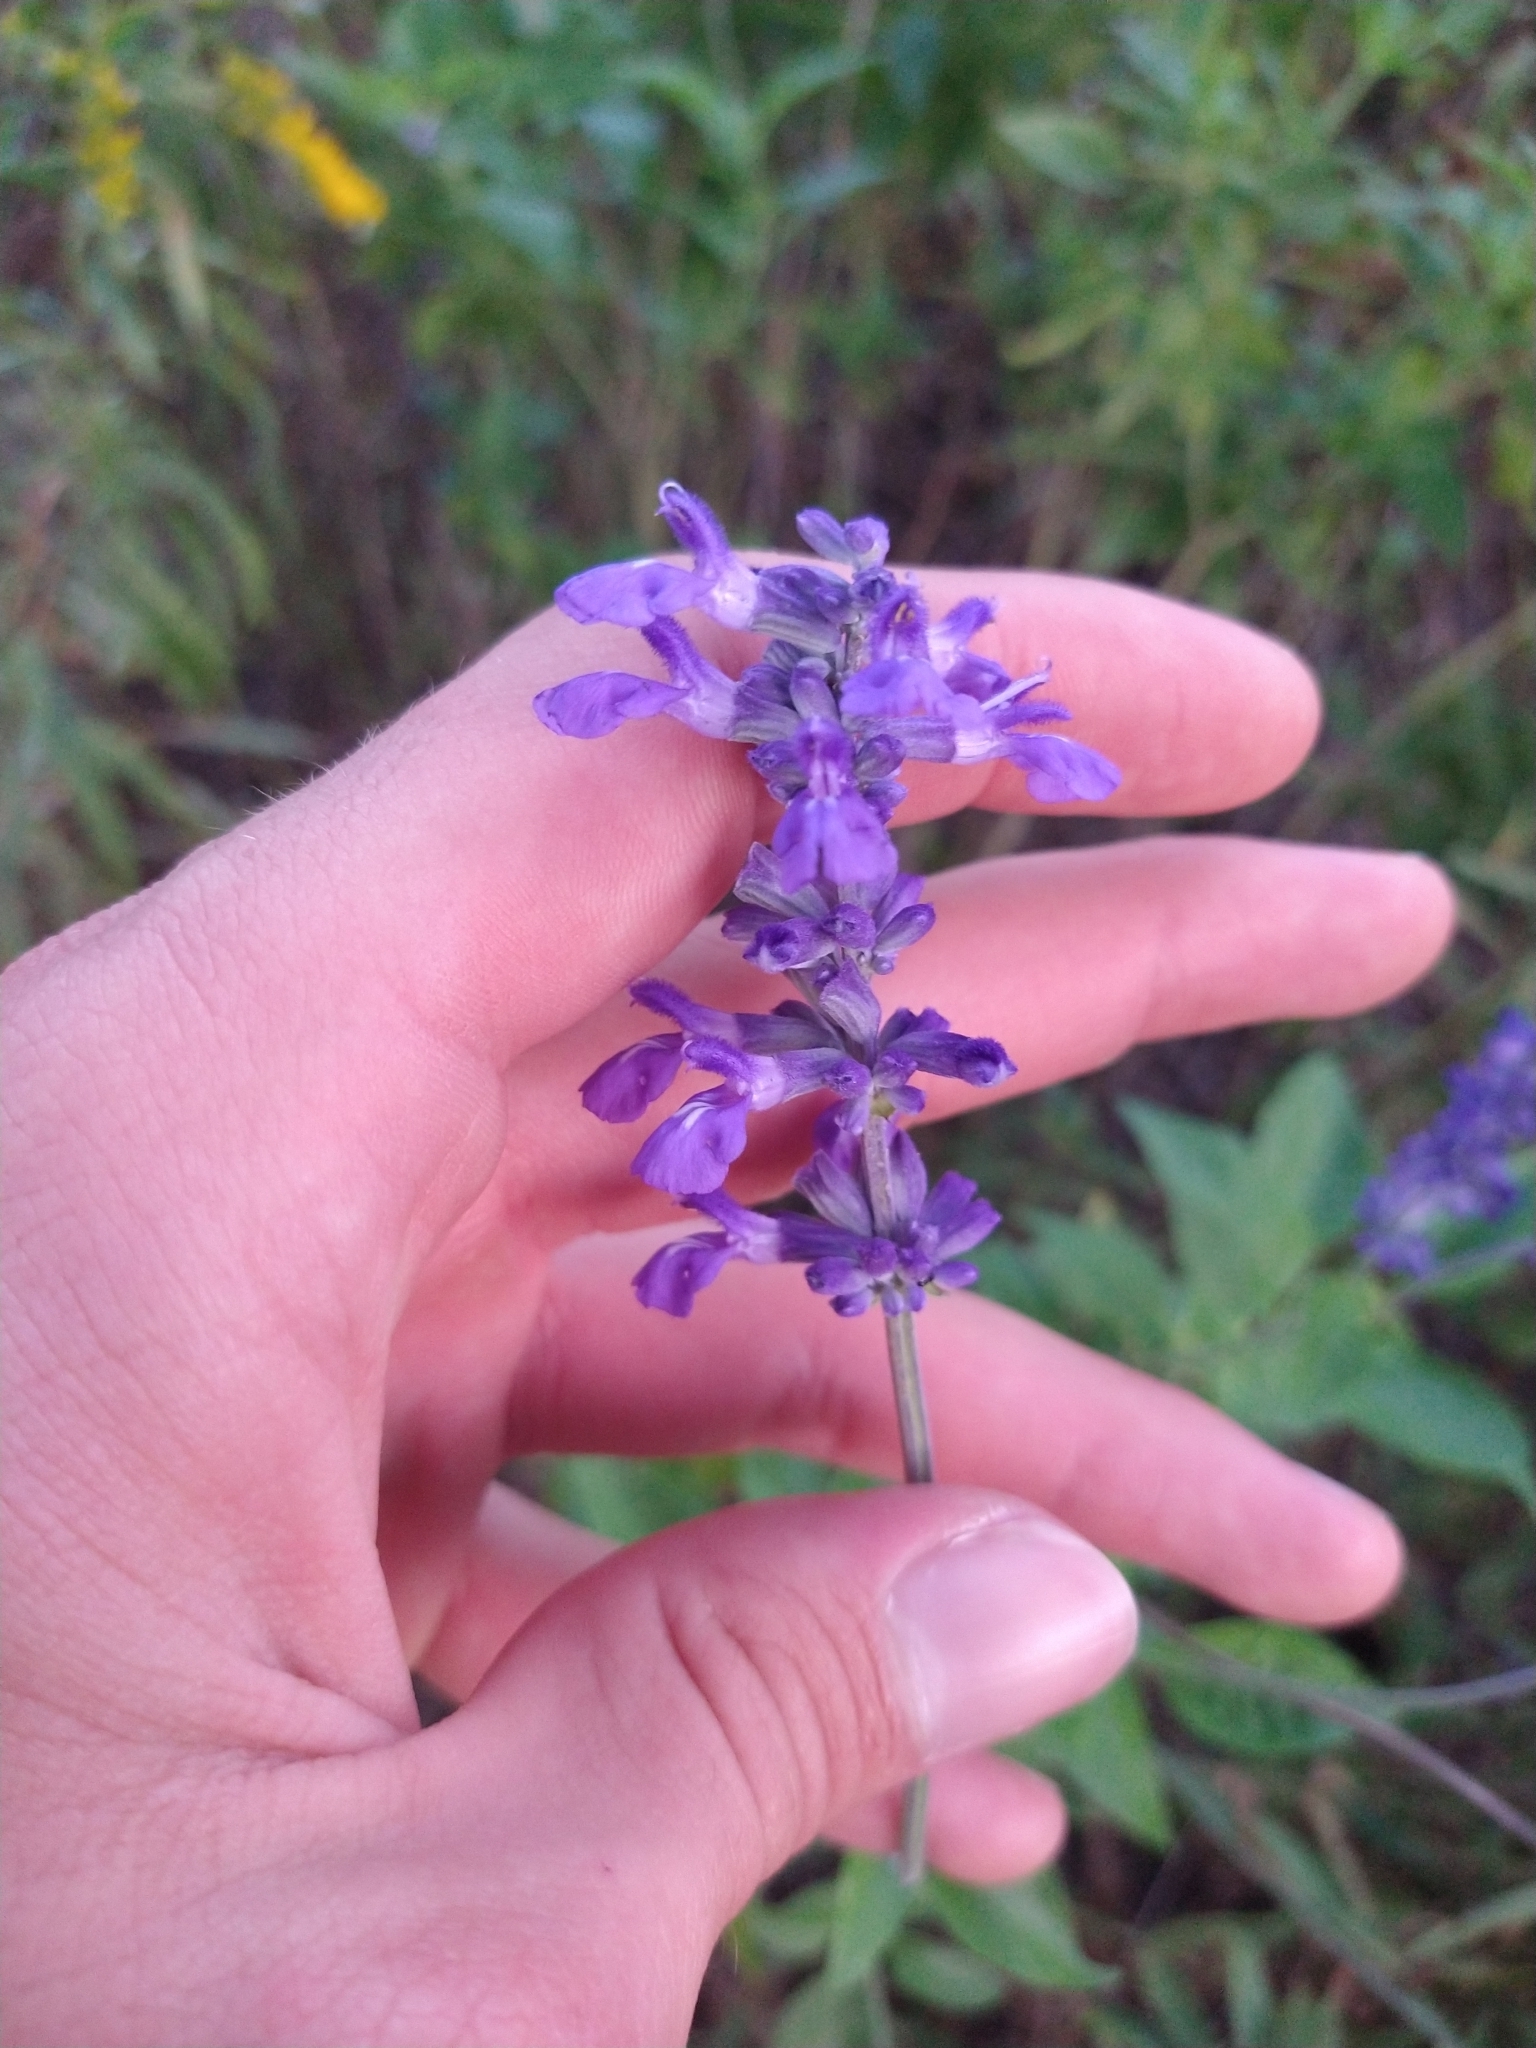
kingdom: Plantae
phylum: Tracheophyta
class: Magnoliopsida
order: Lamiales
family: Lamiaceae
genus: Salvia
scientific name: Salvia farinacea
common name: Mealy sage
